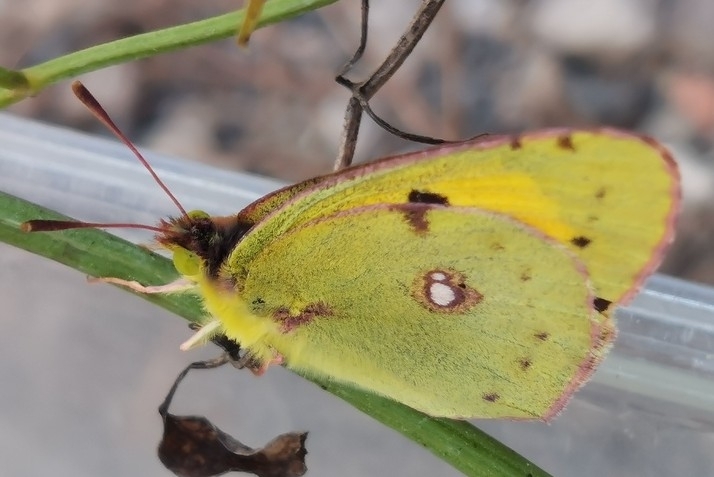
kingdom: Animalia
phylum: Arthropoda
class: Insecta
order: Lepidoptera
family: Pieridae
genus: Colias
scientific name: Colias croceus
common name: Clouded yellow
